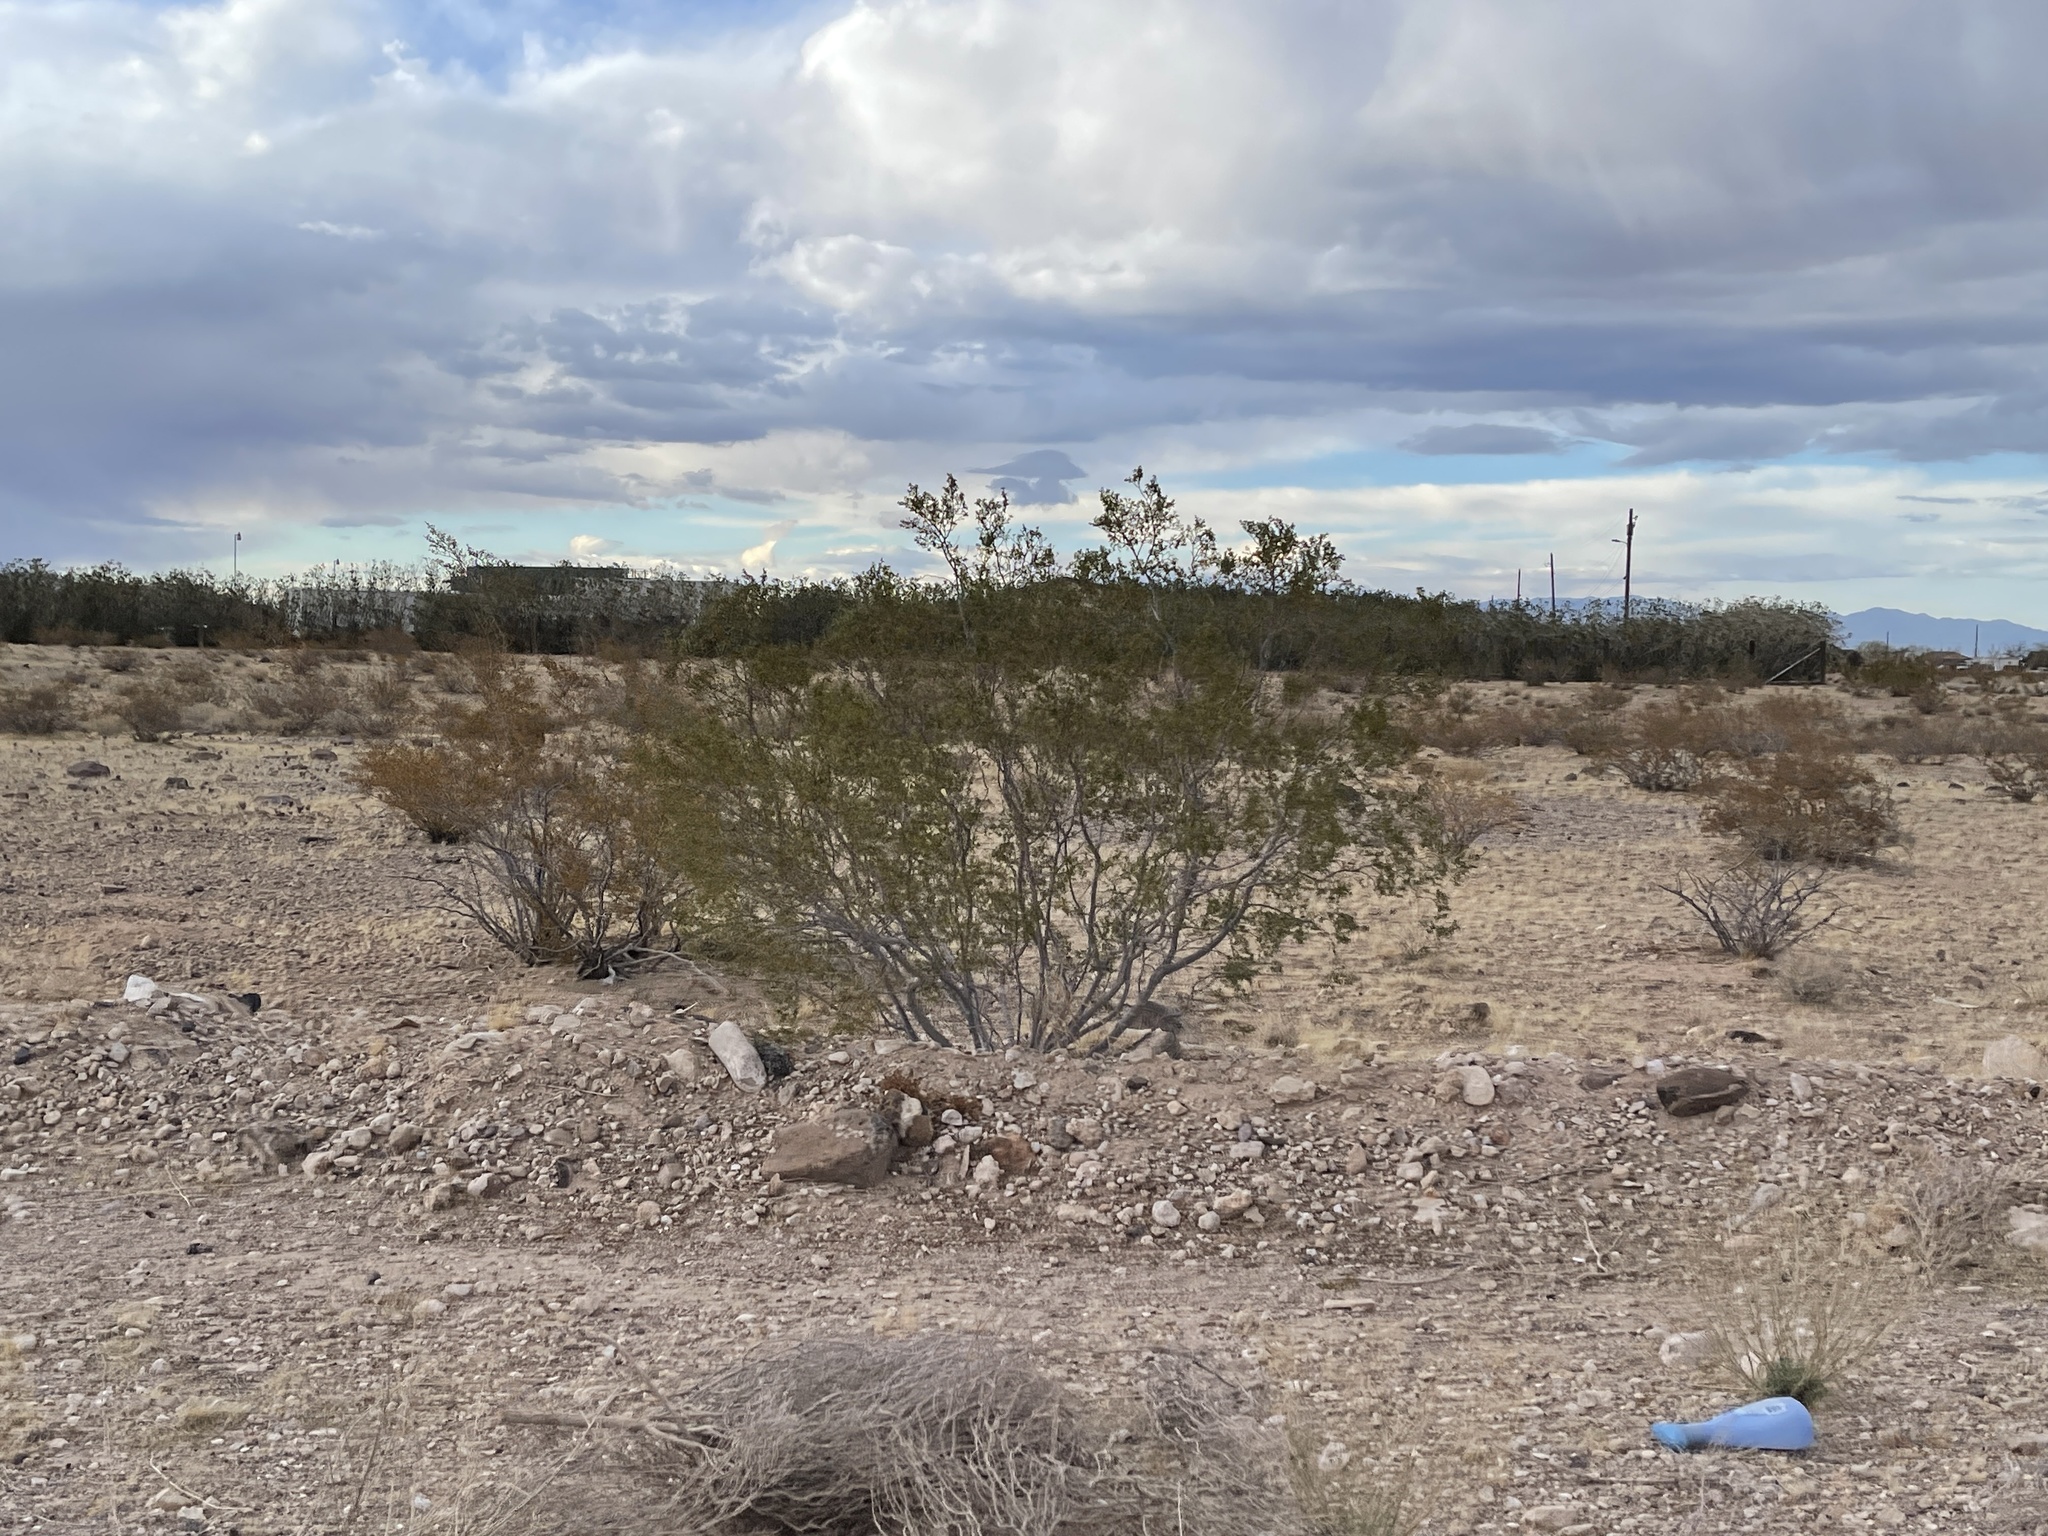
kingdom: Plantae
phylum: Tracheophyta
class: Magnoliopsida
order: Zygophyllales
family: Zygophyllaceae
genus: Larrea
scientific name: Larrea tridentata
